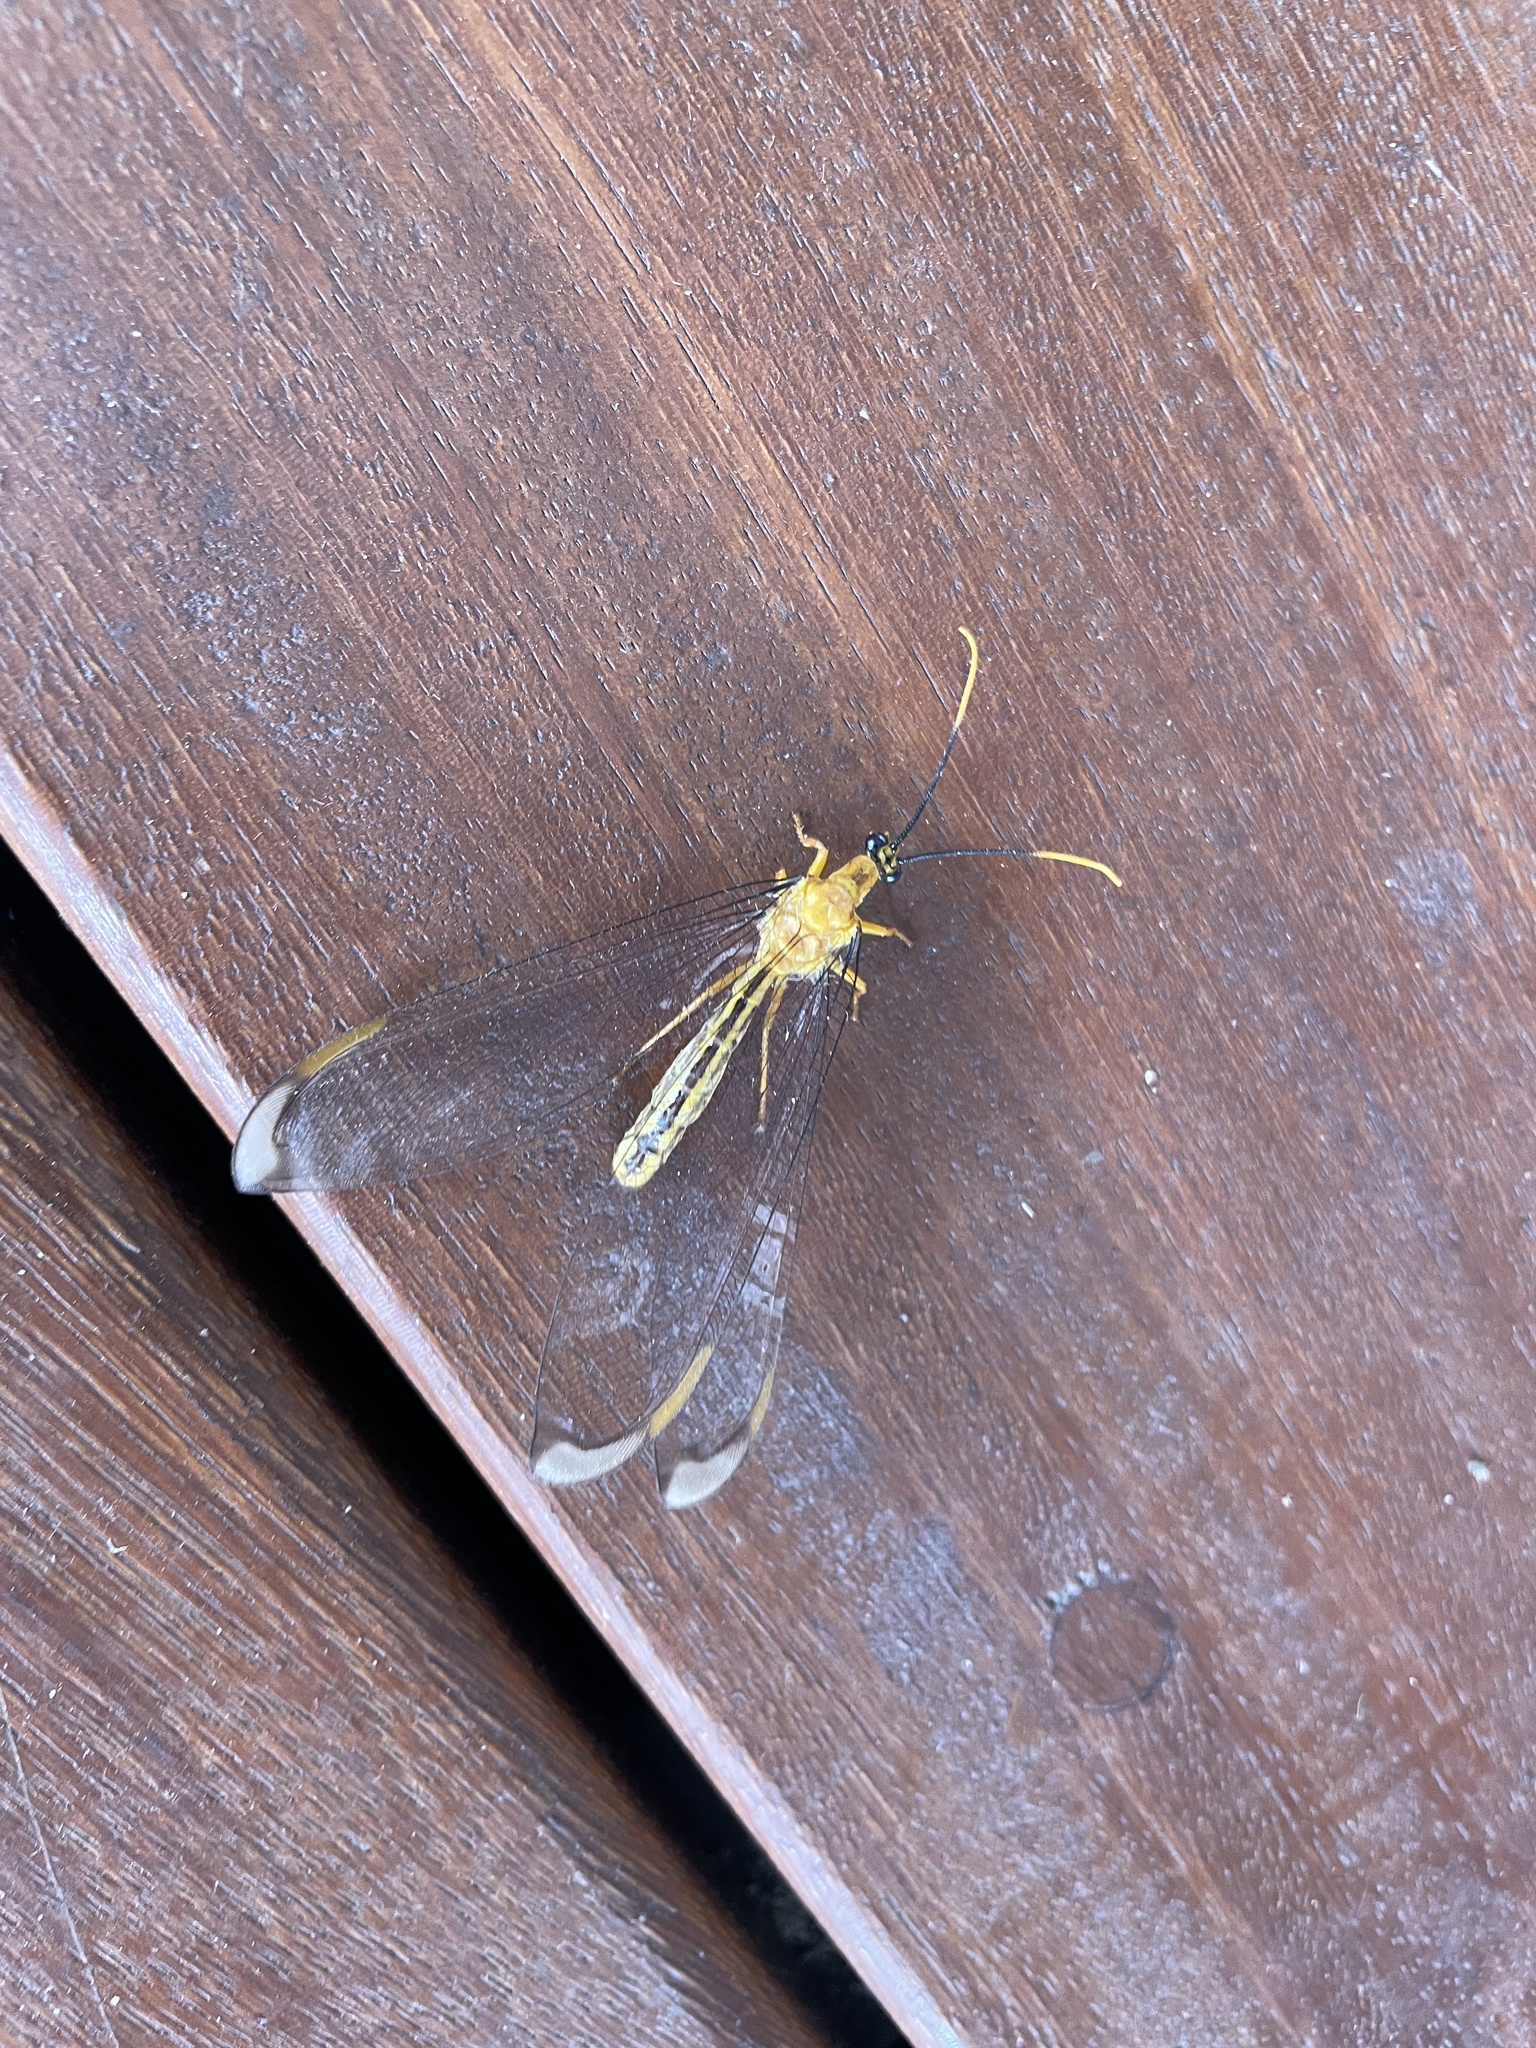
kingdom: Animalia
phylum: Arthropoda
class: Insecta
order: Neuroptera
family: Nymphidae
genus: Nymphes
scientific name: Nymphes myrmeleonoides
